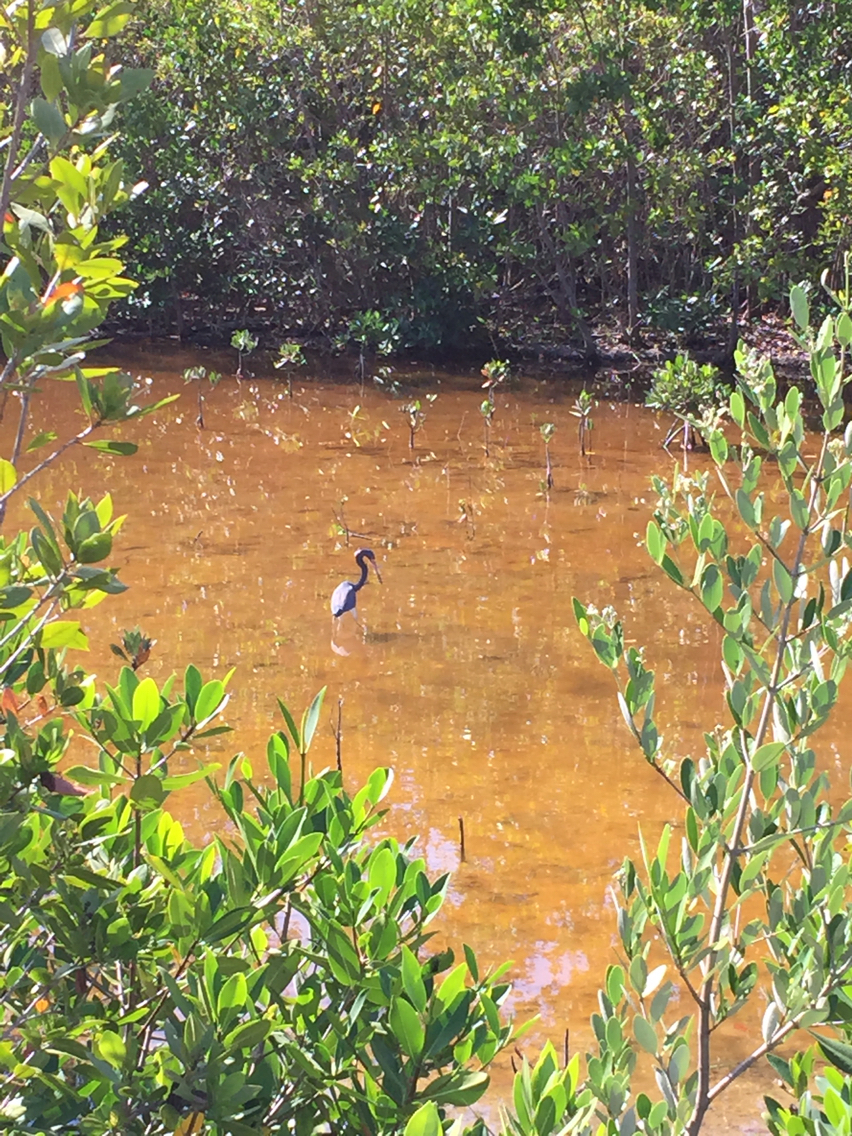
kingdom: Animalia
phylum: Chordata
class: Aves
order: Pelecaniformes
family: Ardeidae
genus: Egretta
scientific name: Egretta tricolor
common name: Tricolored heron
